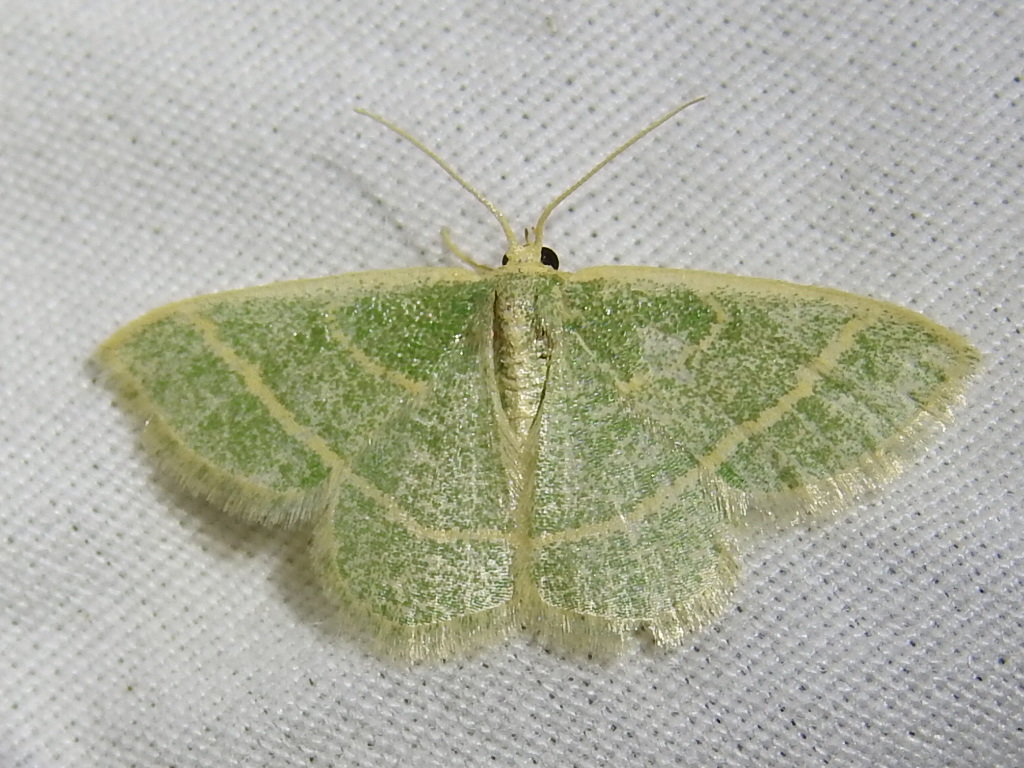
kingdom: Animalia
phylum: Arthropoda
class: Insecta
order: Lepidoptera
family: Geometridae
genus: Chlorochlamys
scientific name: Chlorochlamys chloroleucaria
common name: Blackberry looper
